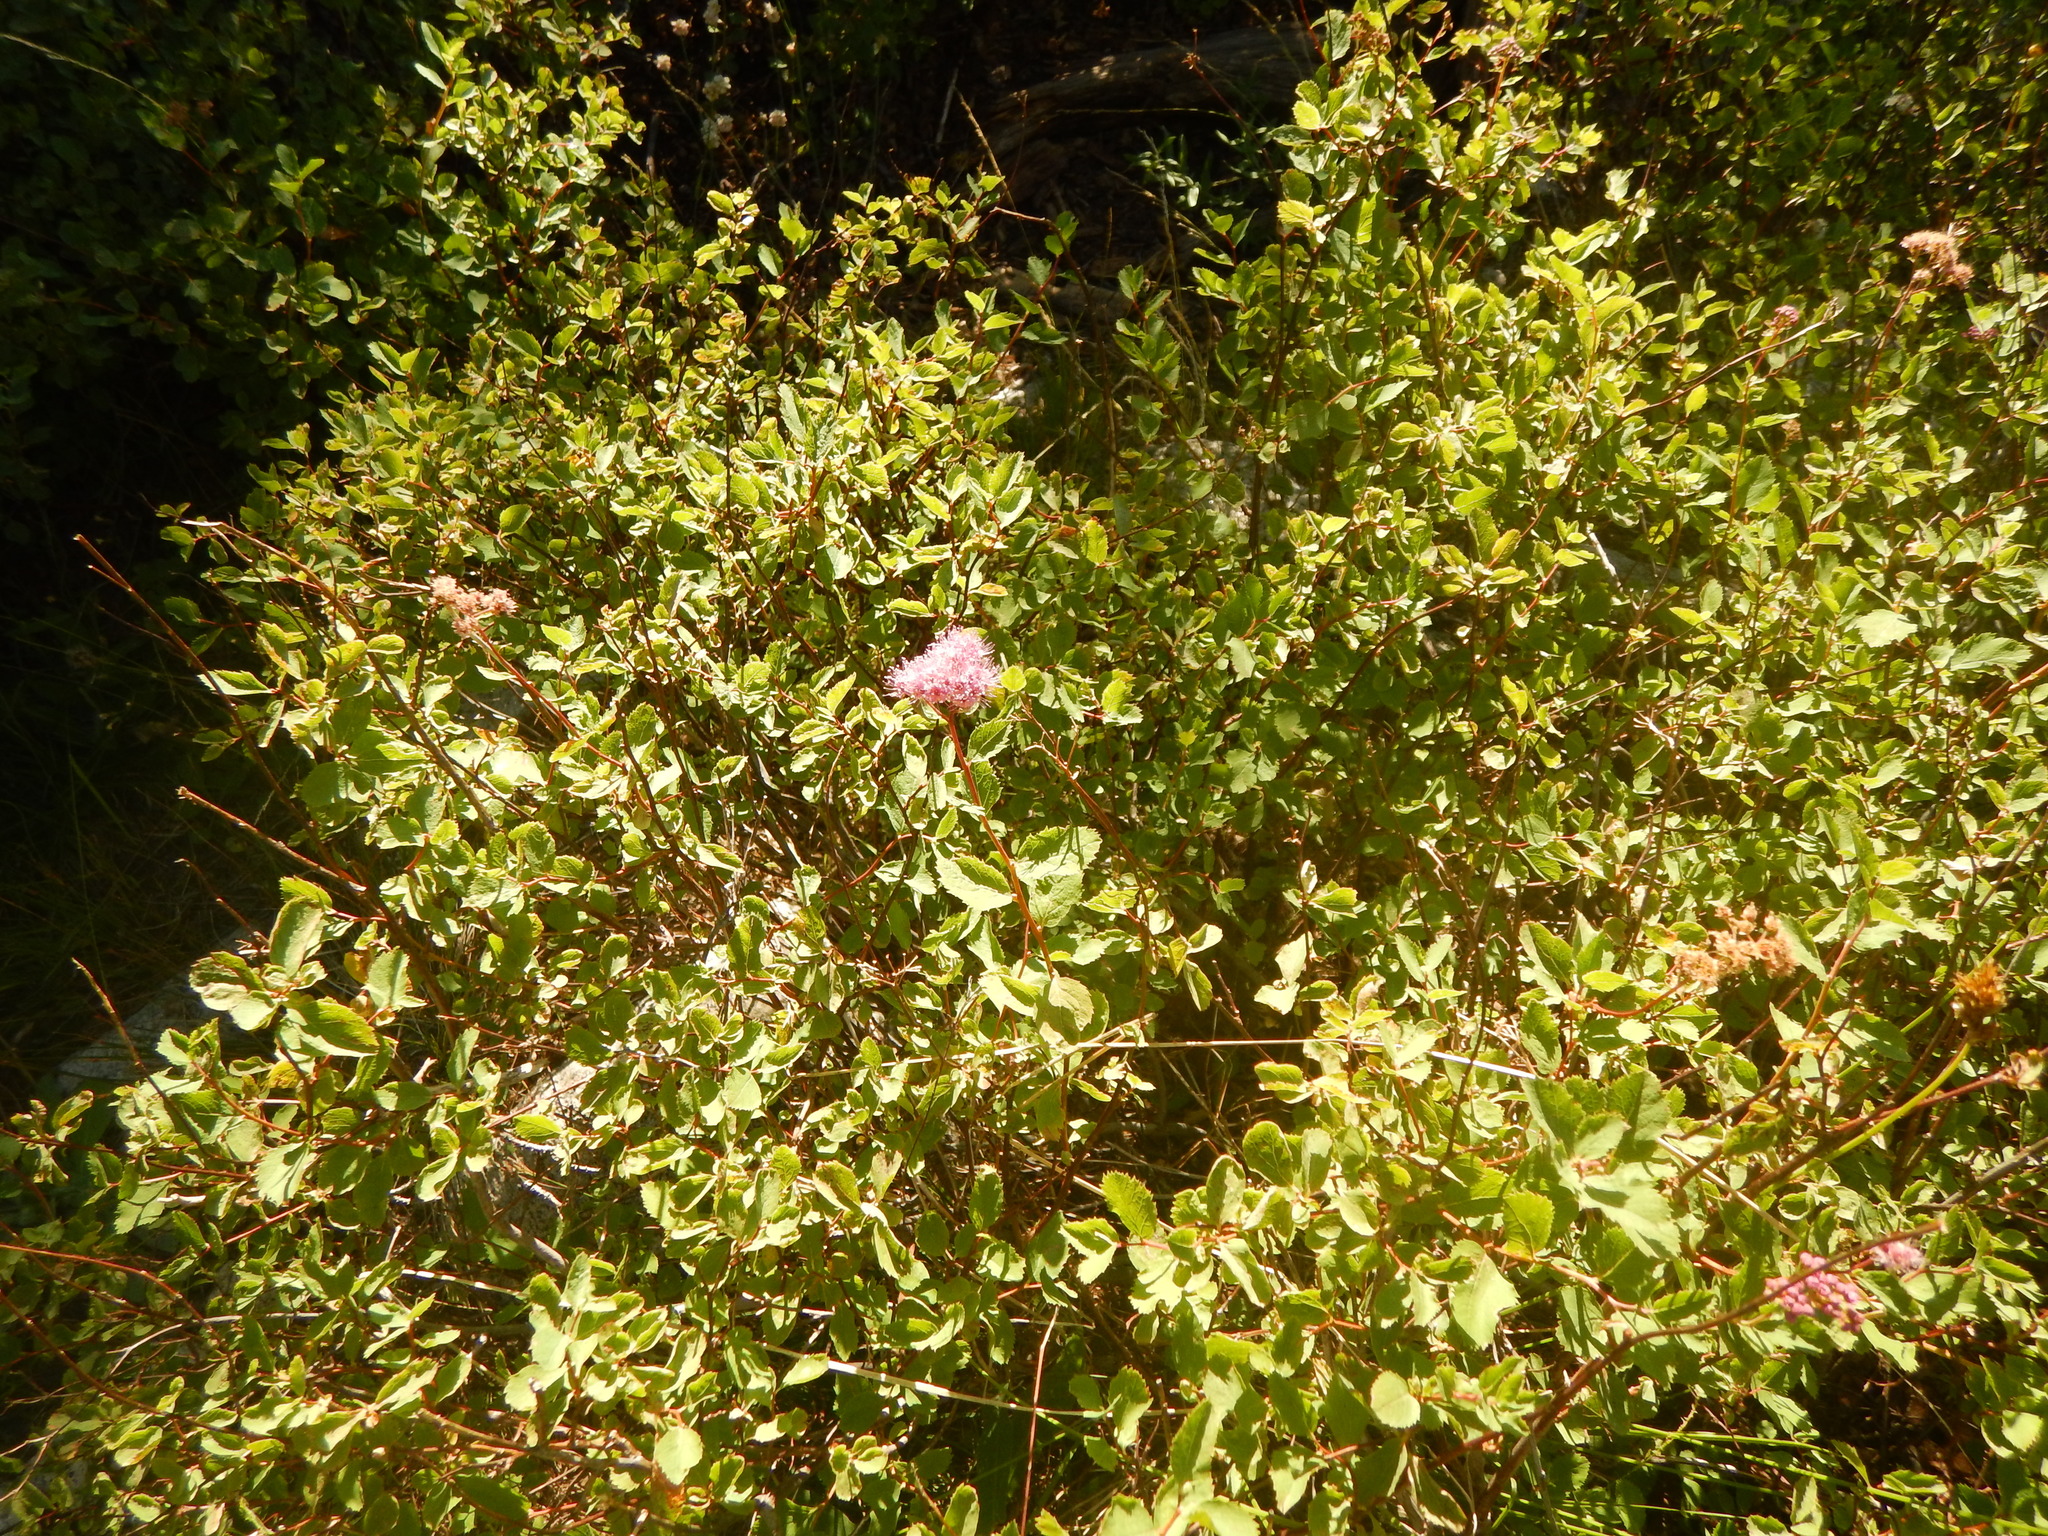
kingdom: Plantae
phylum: Tracheophyta
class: Magnoliopsida
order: Rosales
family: Rosaceae
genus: Spiraea
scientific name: Spiraea splendens
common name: Subalpine meadowsweet
